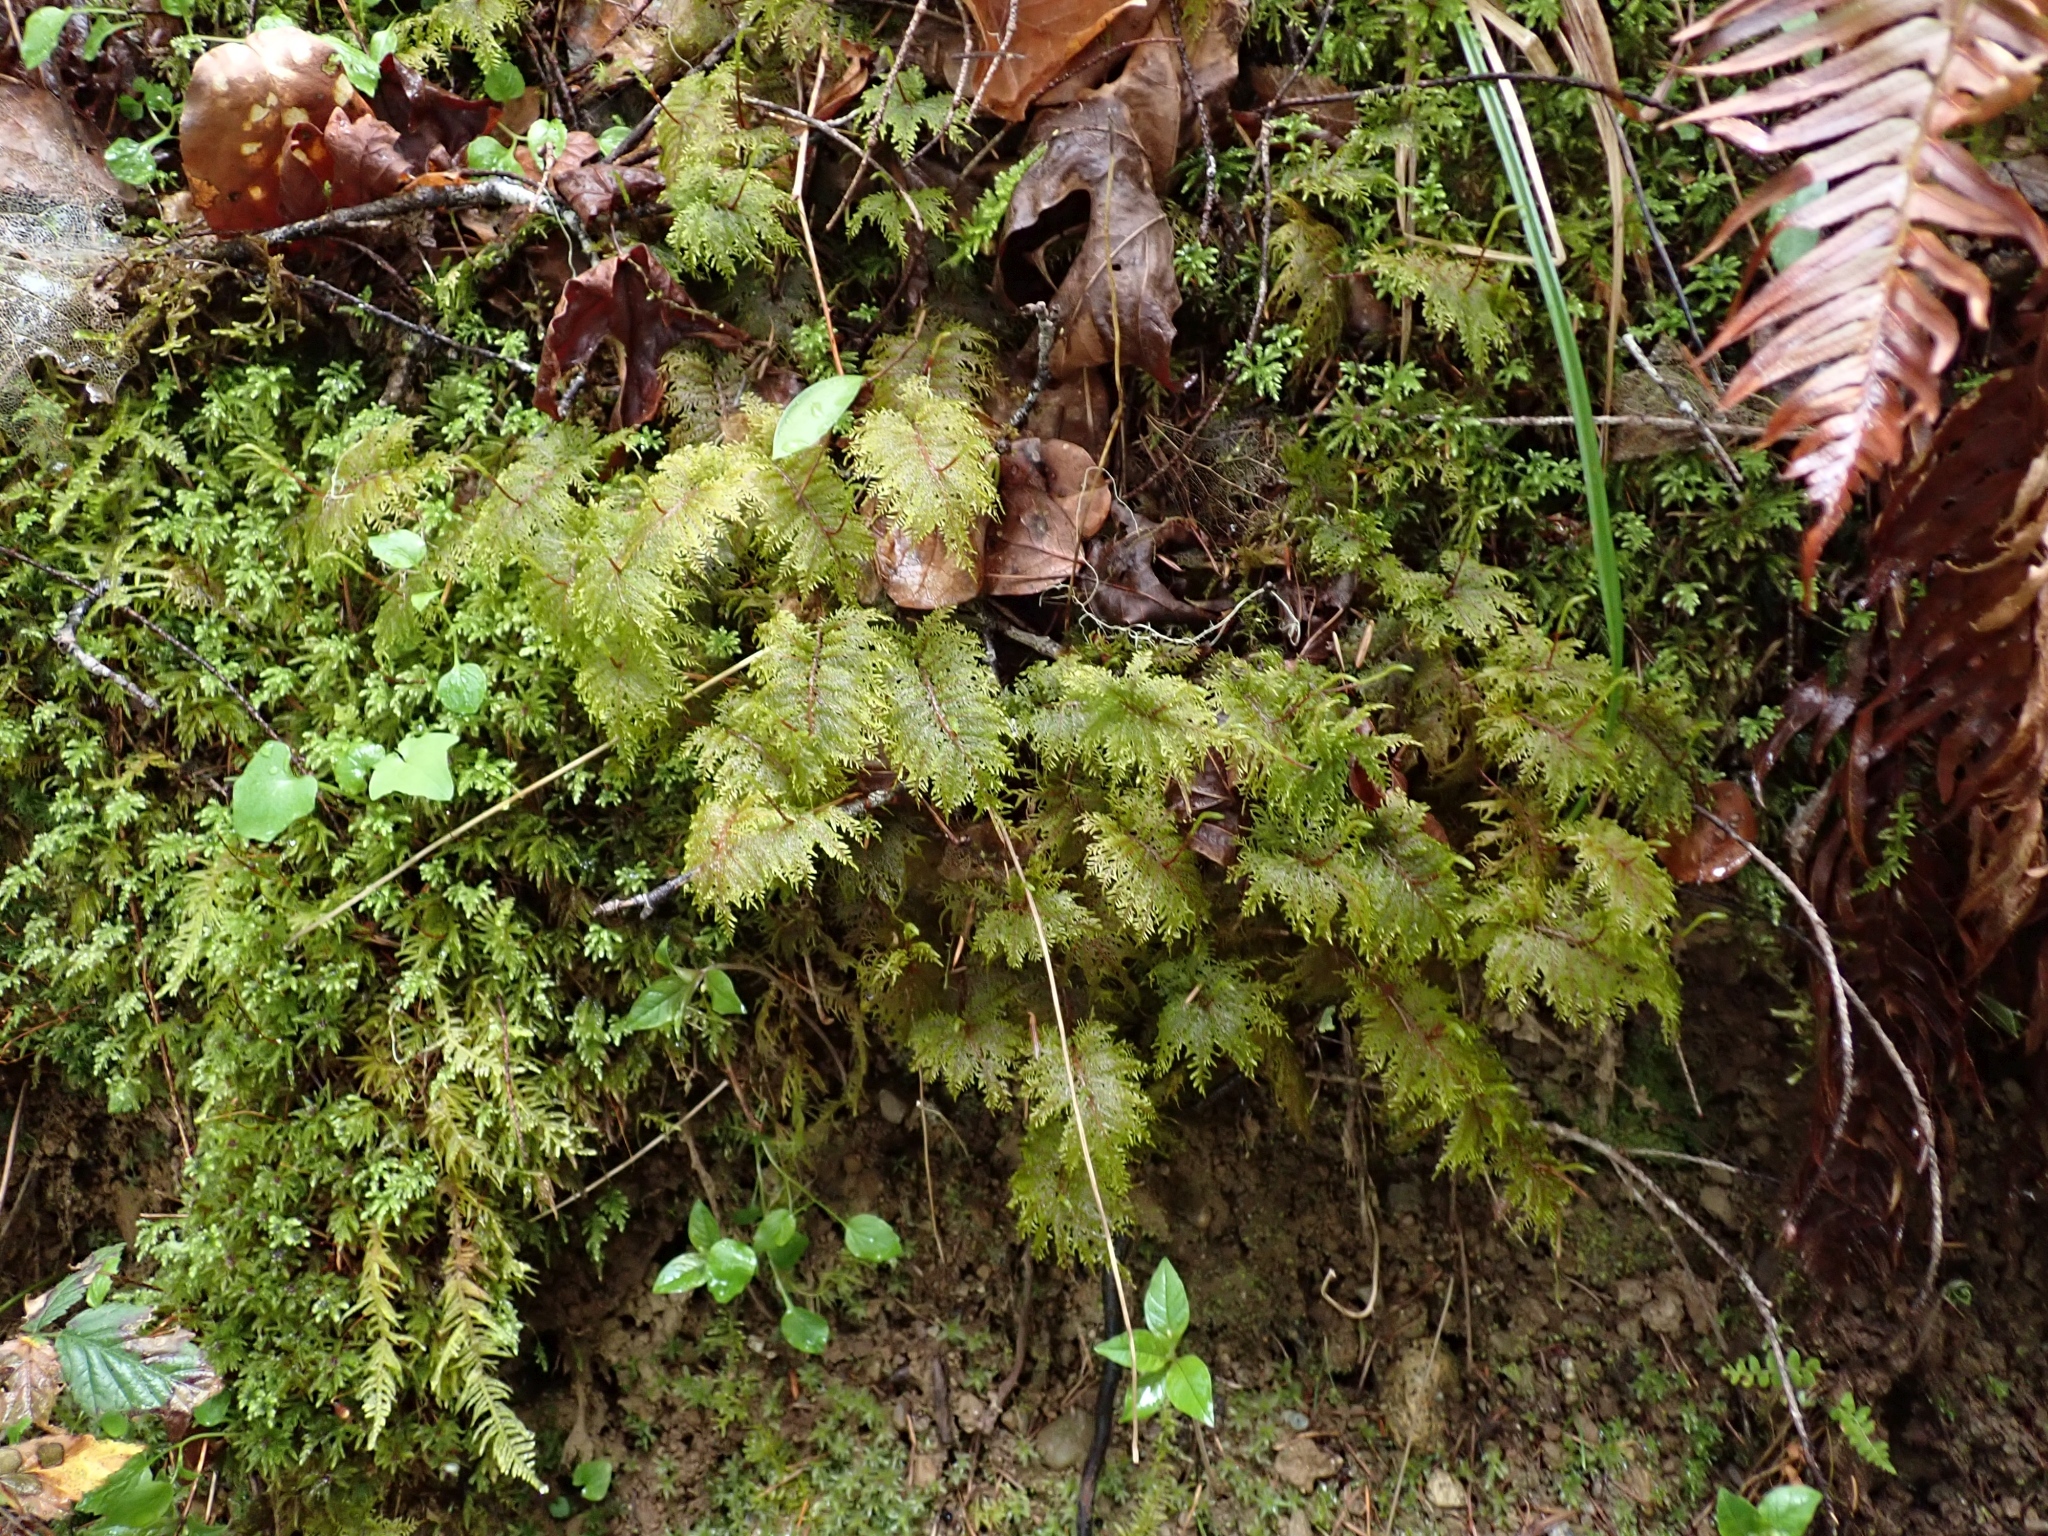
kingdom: Plantae
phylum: Bryophyta
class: Bryopsida
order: Hypnales
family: Hylocomiaceae
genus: Hylocomium
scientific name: Hylocomium splendens
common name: Stairstep moss
